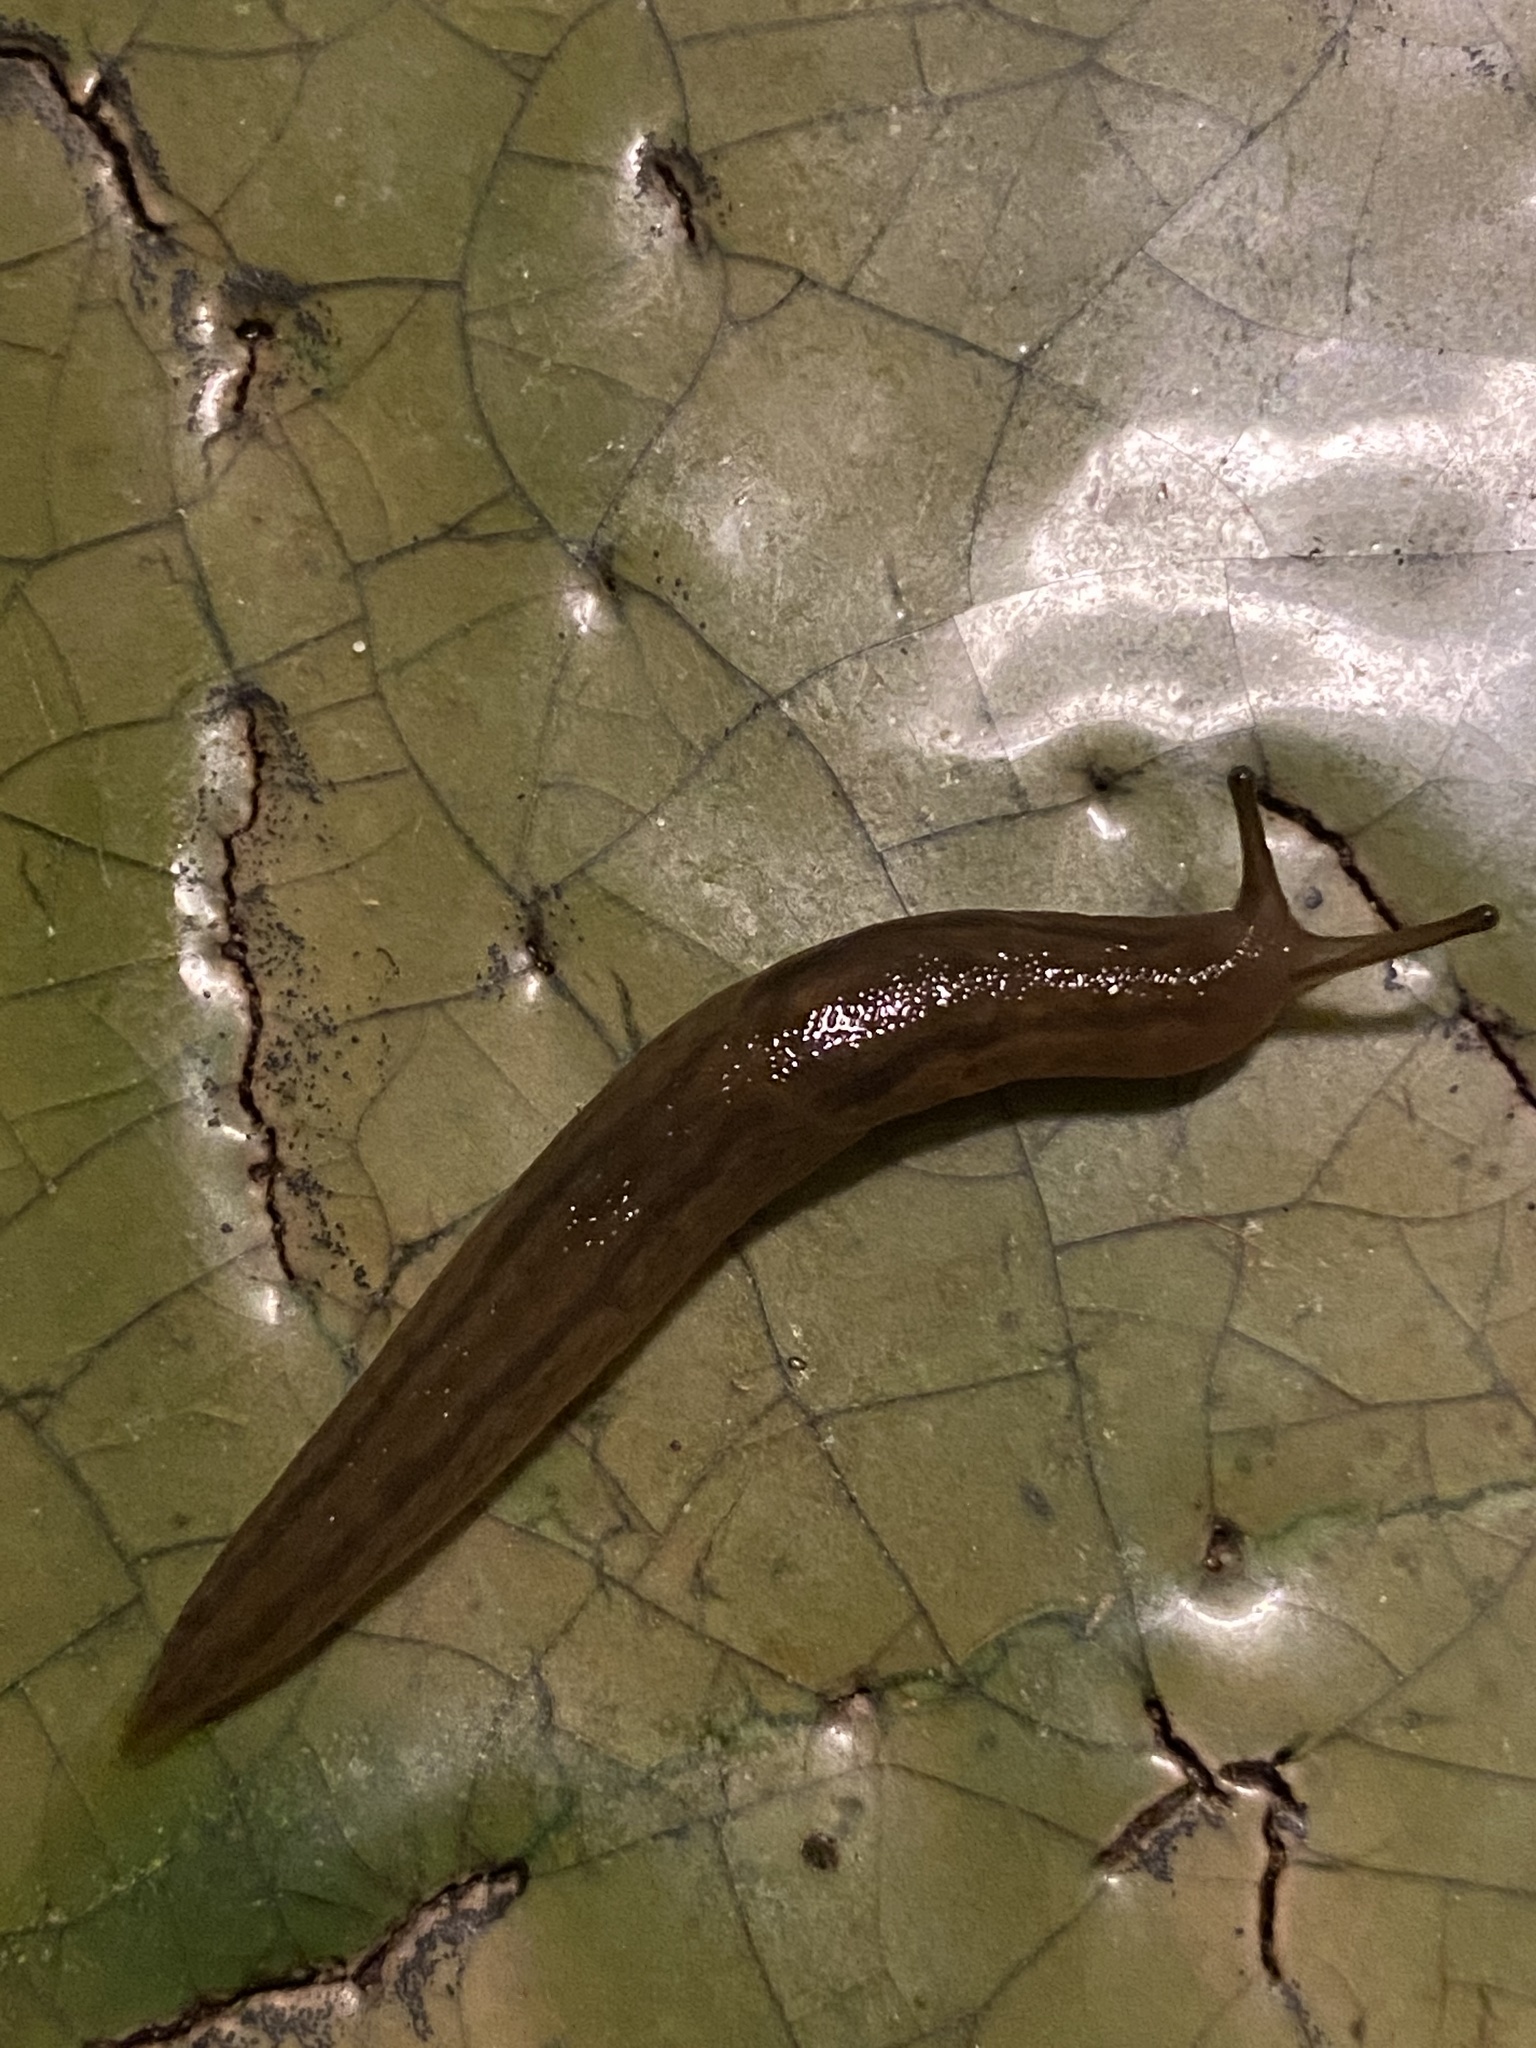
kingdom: Animalia
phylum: Mollusca
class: Gastropoda
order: Stylommatophora
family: Limacidae
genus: Ambigolimax
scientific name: Ambigolimax valentianus
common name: Greenhouse slug
